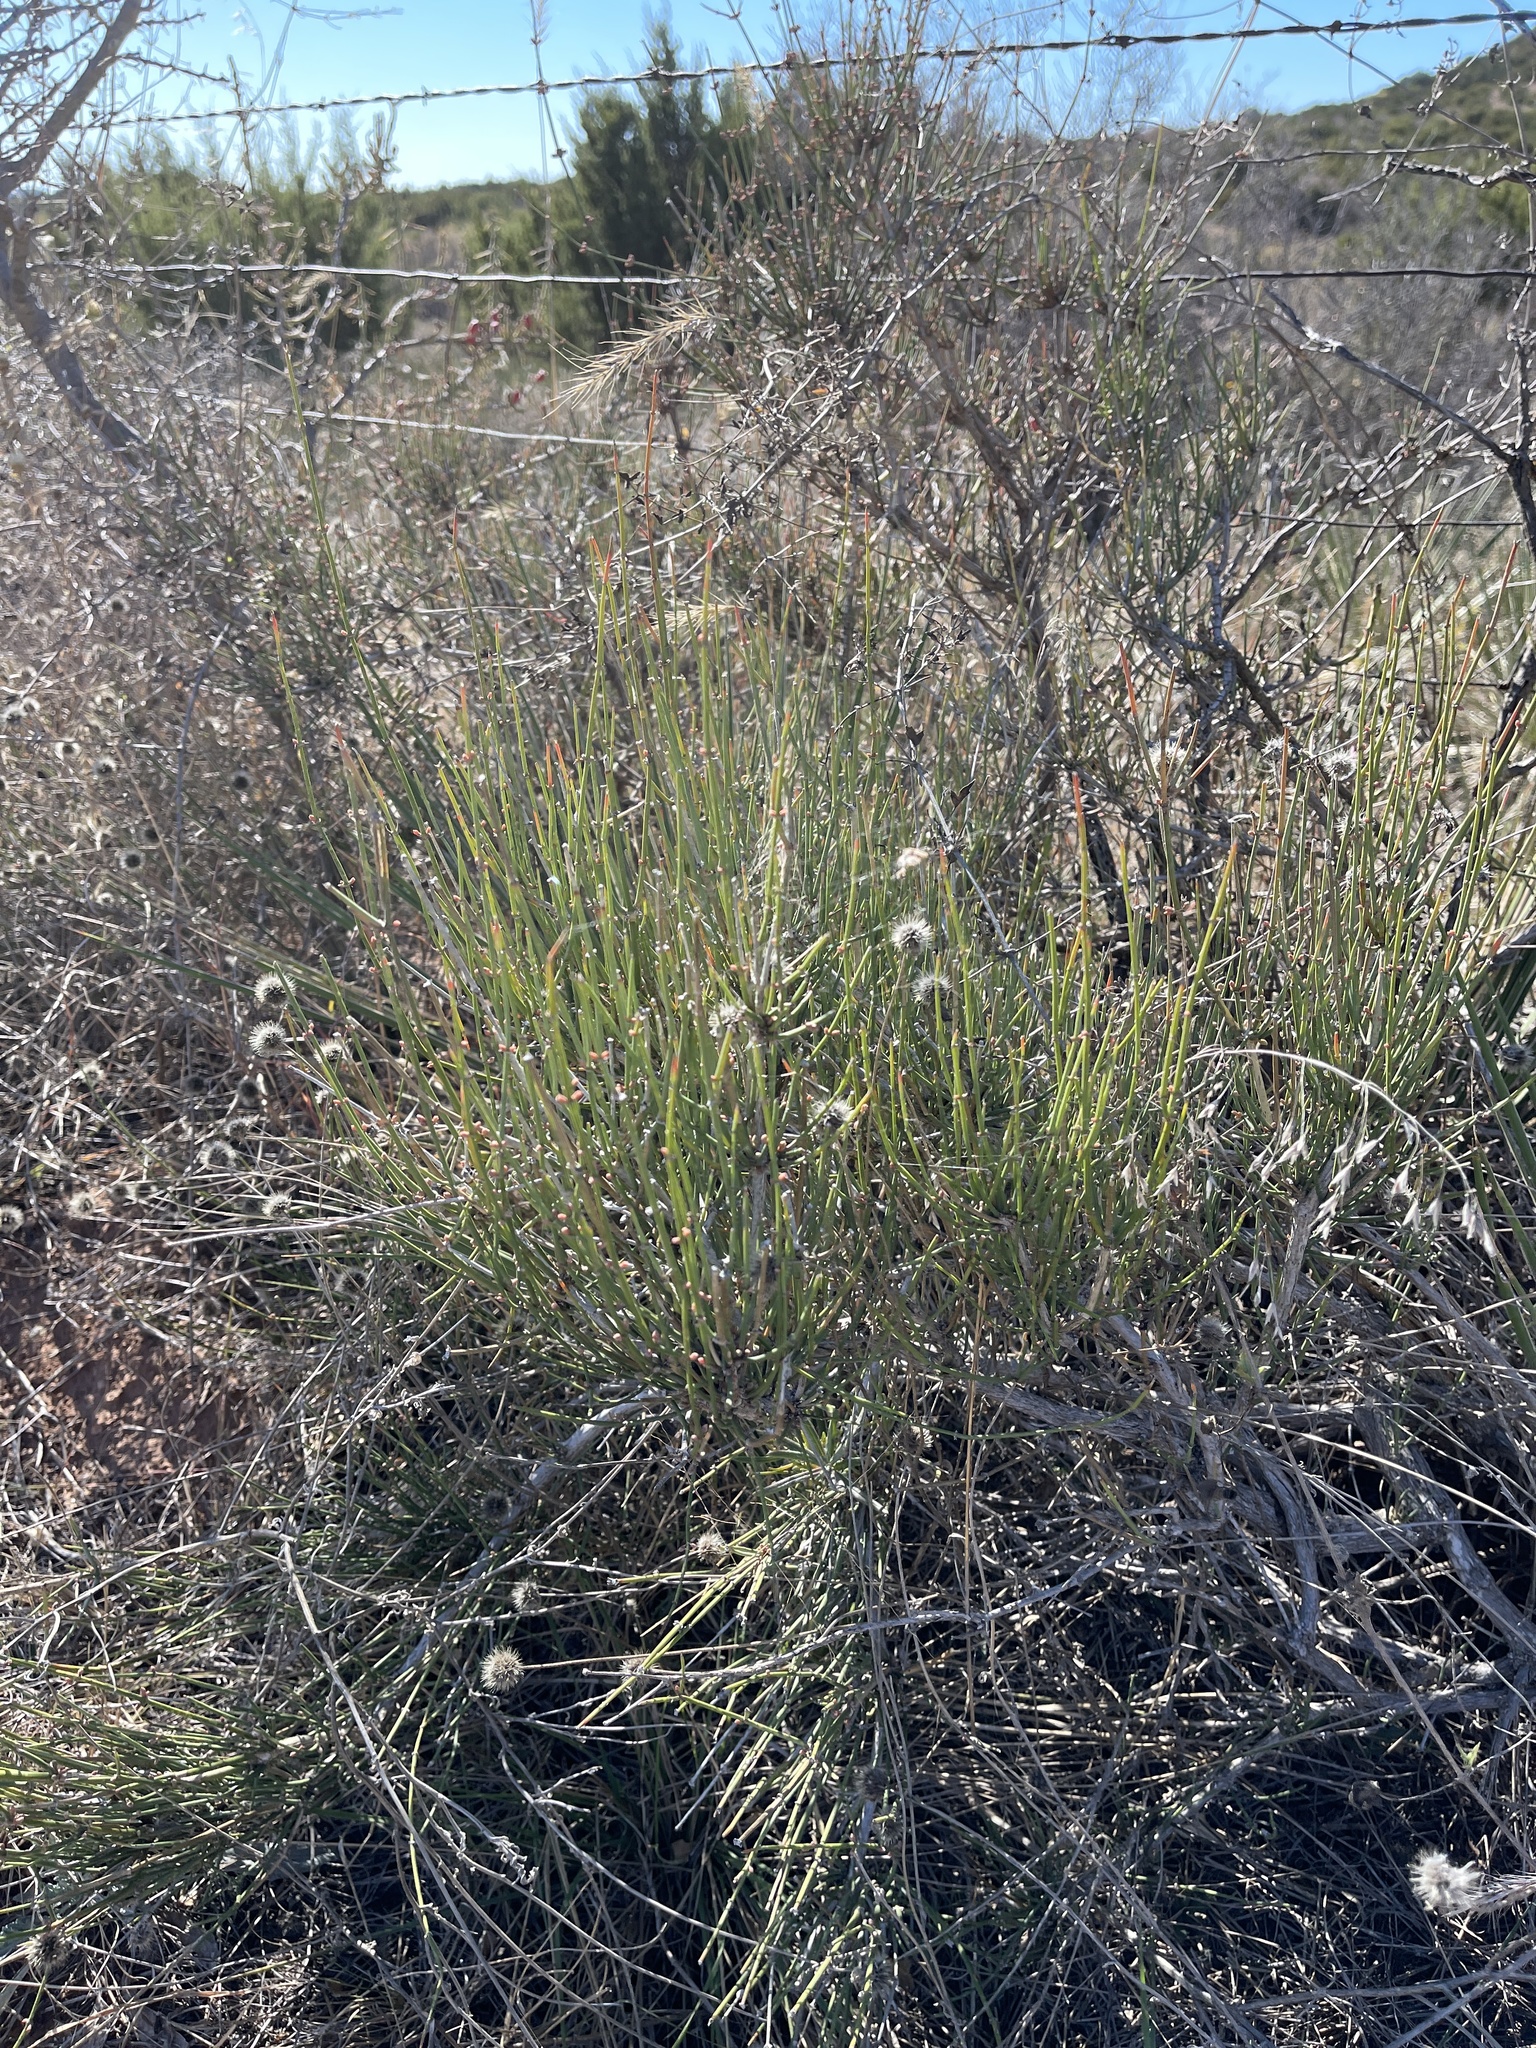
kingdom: Plantae
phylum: Tracheophyta
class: Gnetopsida
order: Ephedrales
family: Ephedraceae
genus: Ephedra
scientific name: Ephedra antisyphilitica
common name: Clipweed
